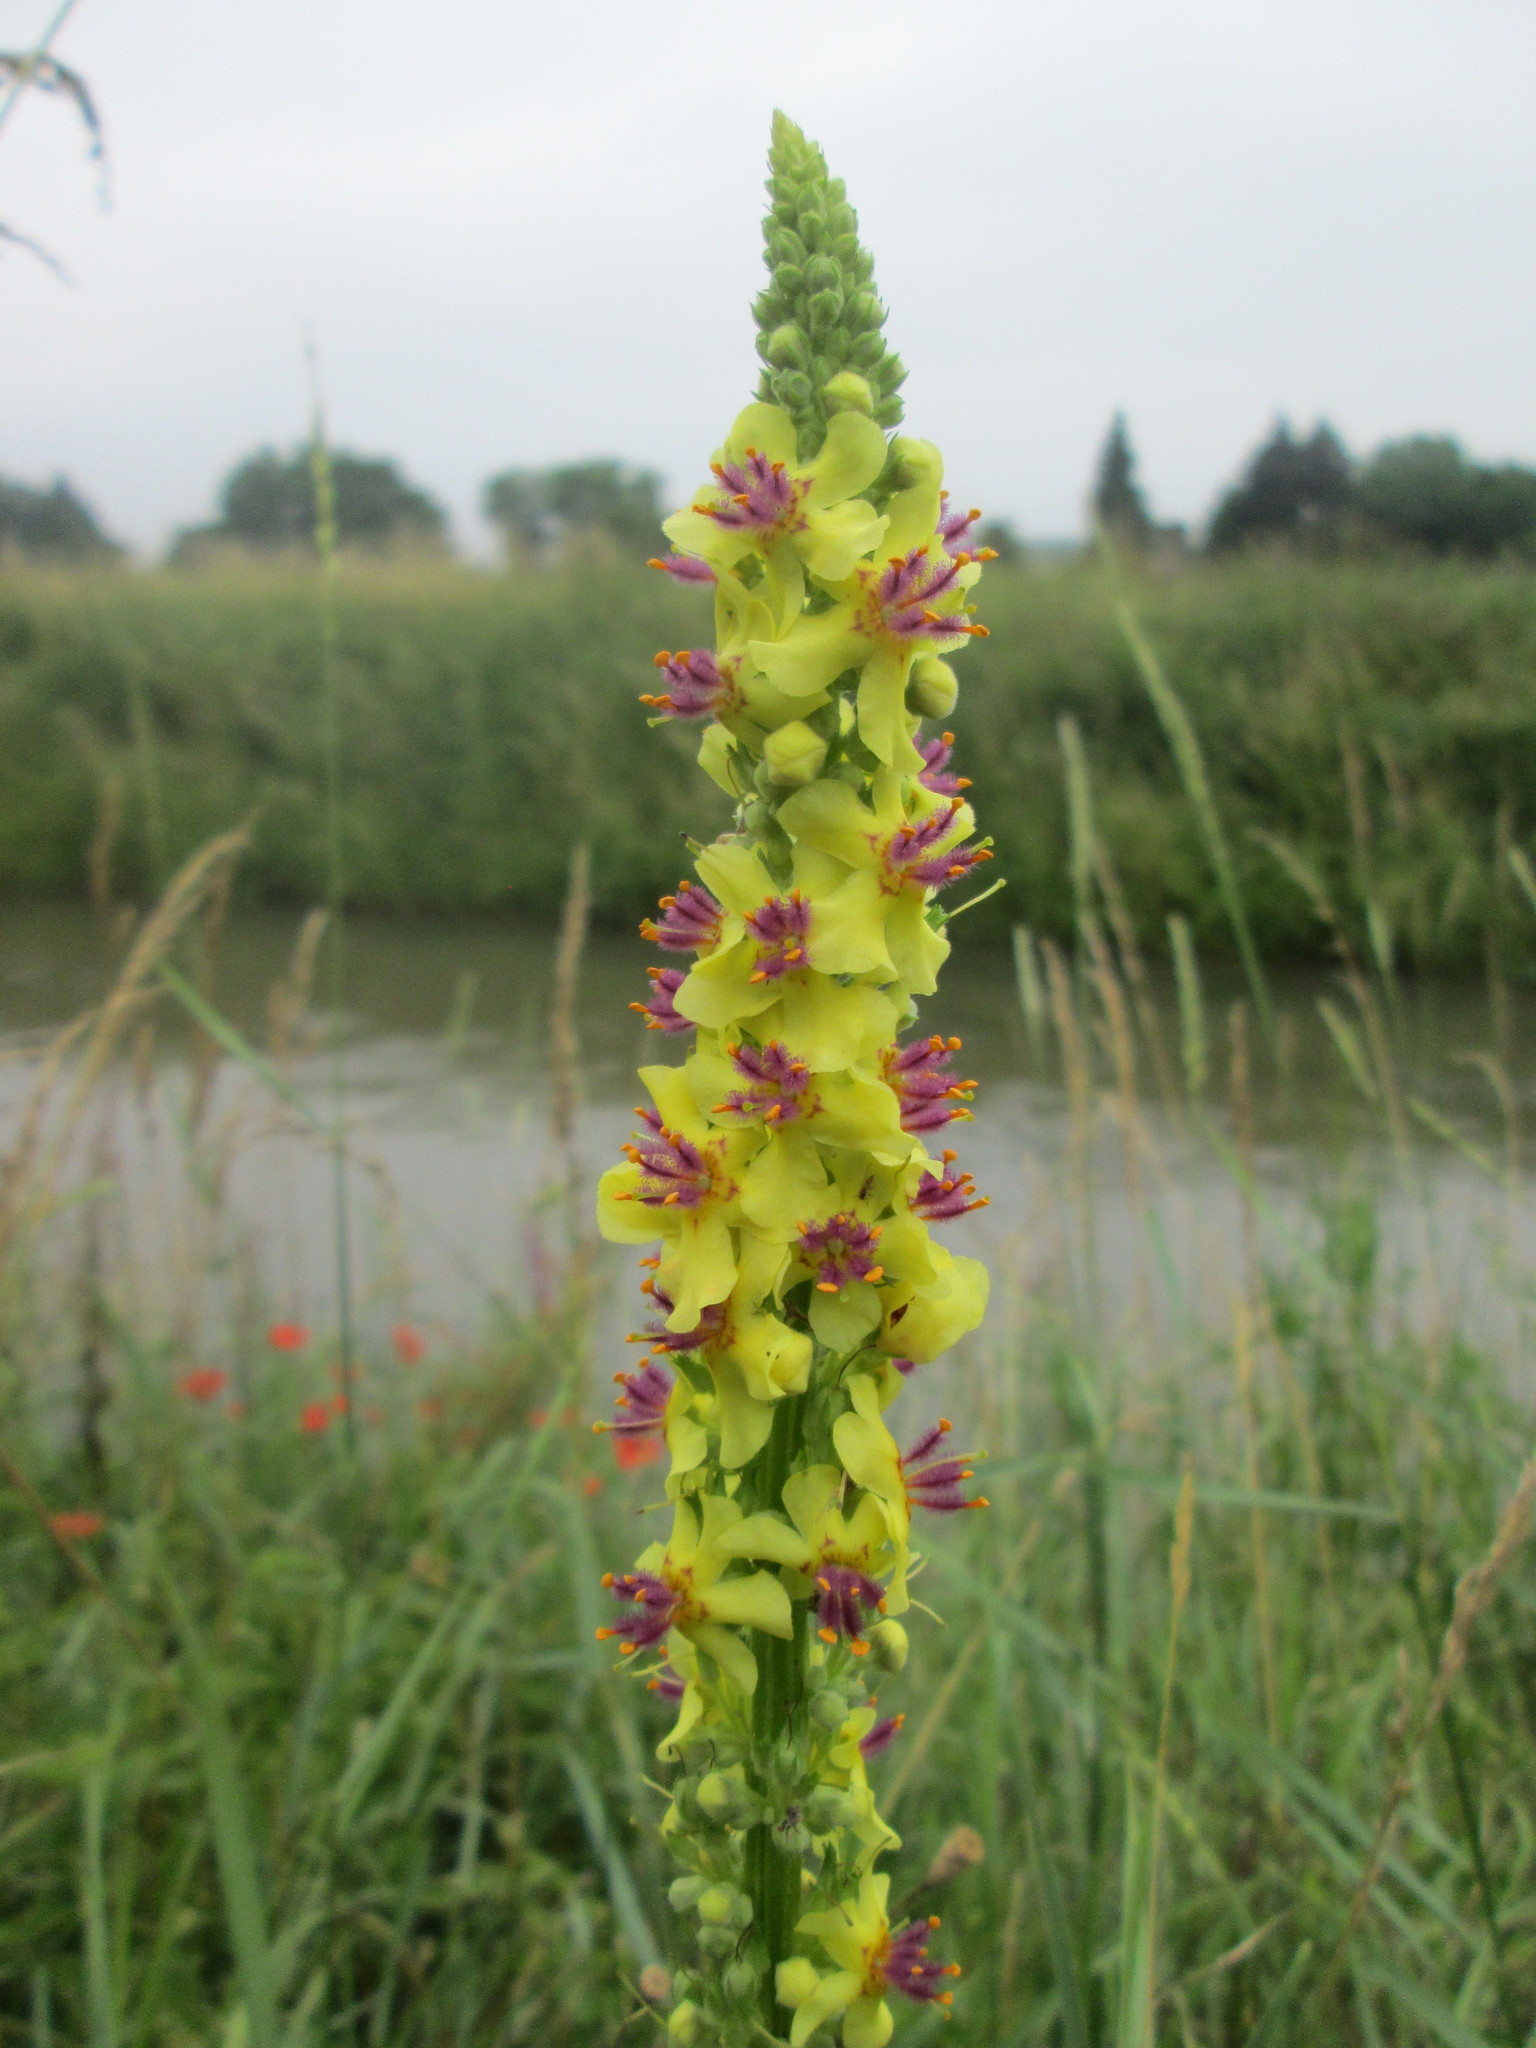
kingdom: Plantae
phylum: Tracheophyta
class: Magnoliopsida
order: Lamiales
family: Scrophulariaceae
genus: Verbascum
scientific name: Verbascum nigrum
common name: Dark mullein
